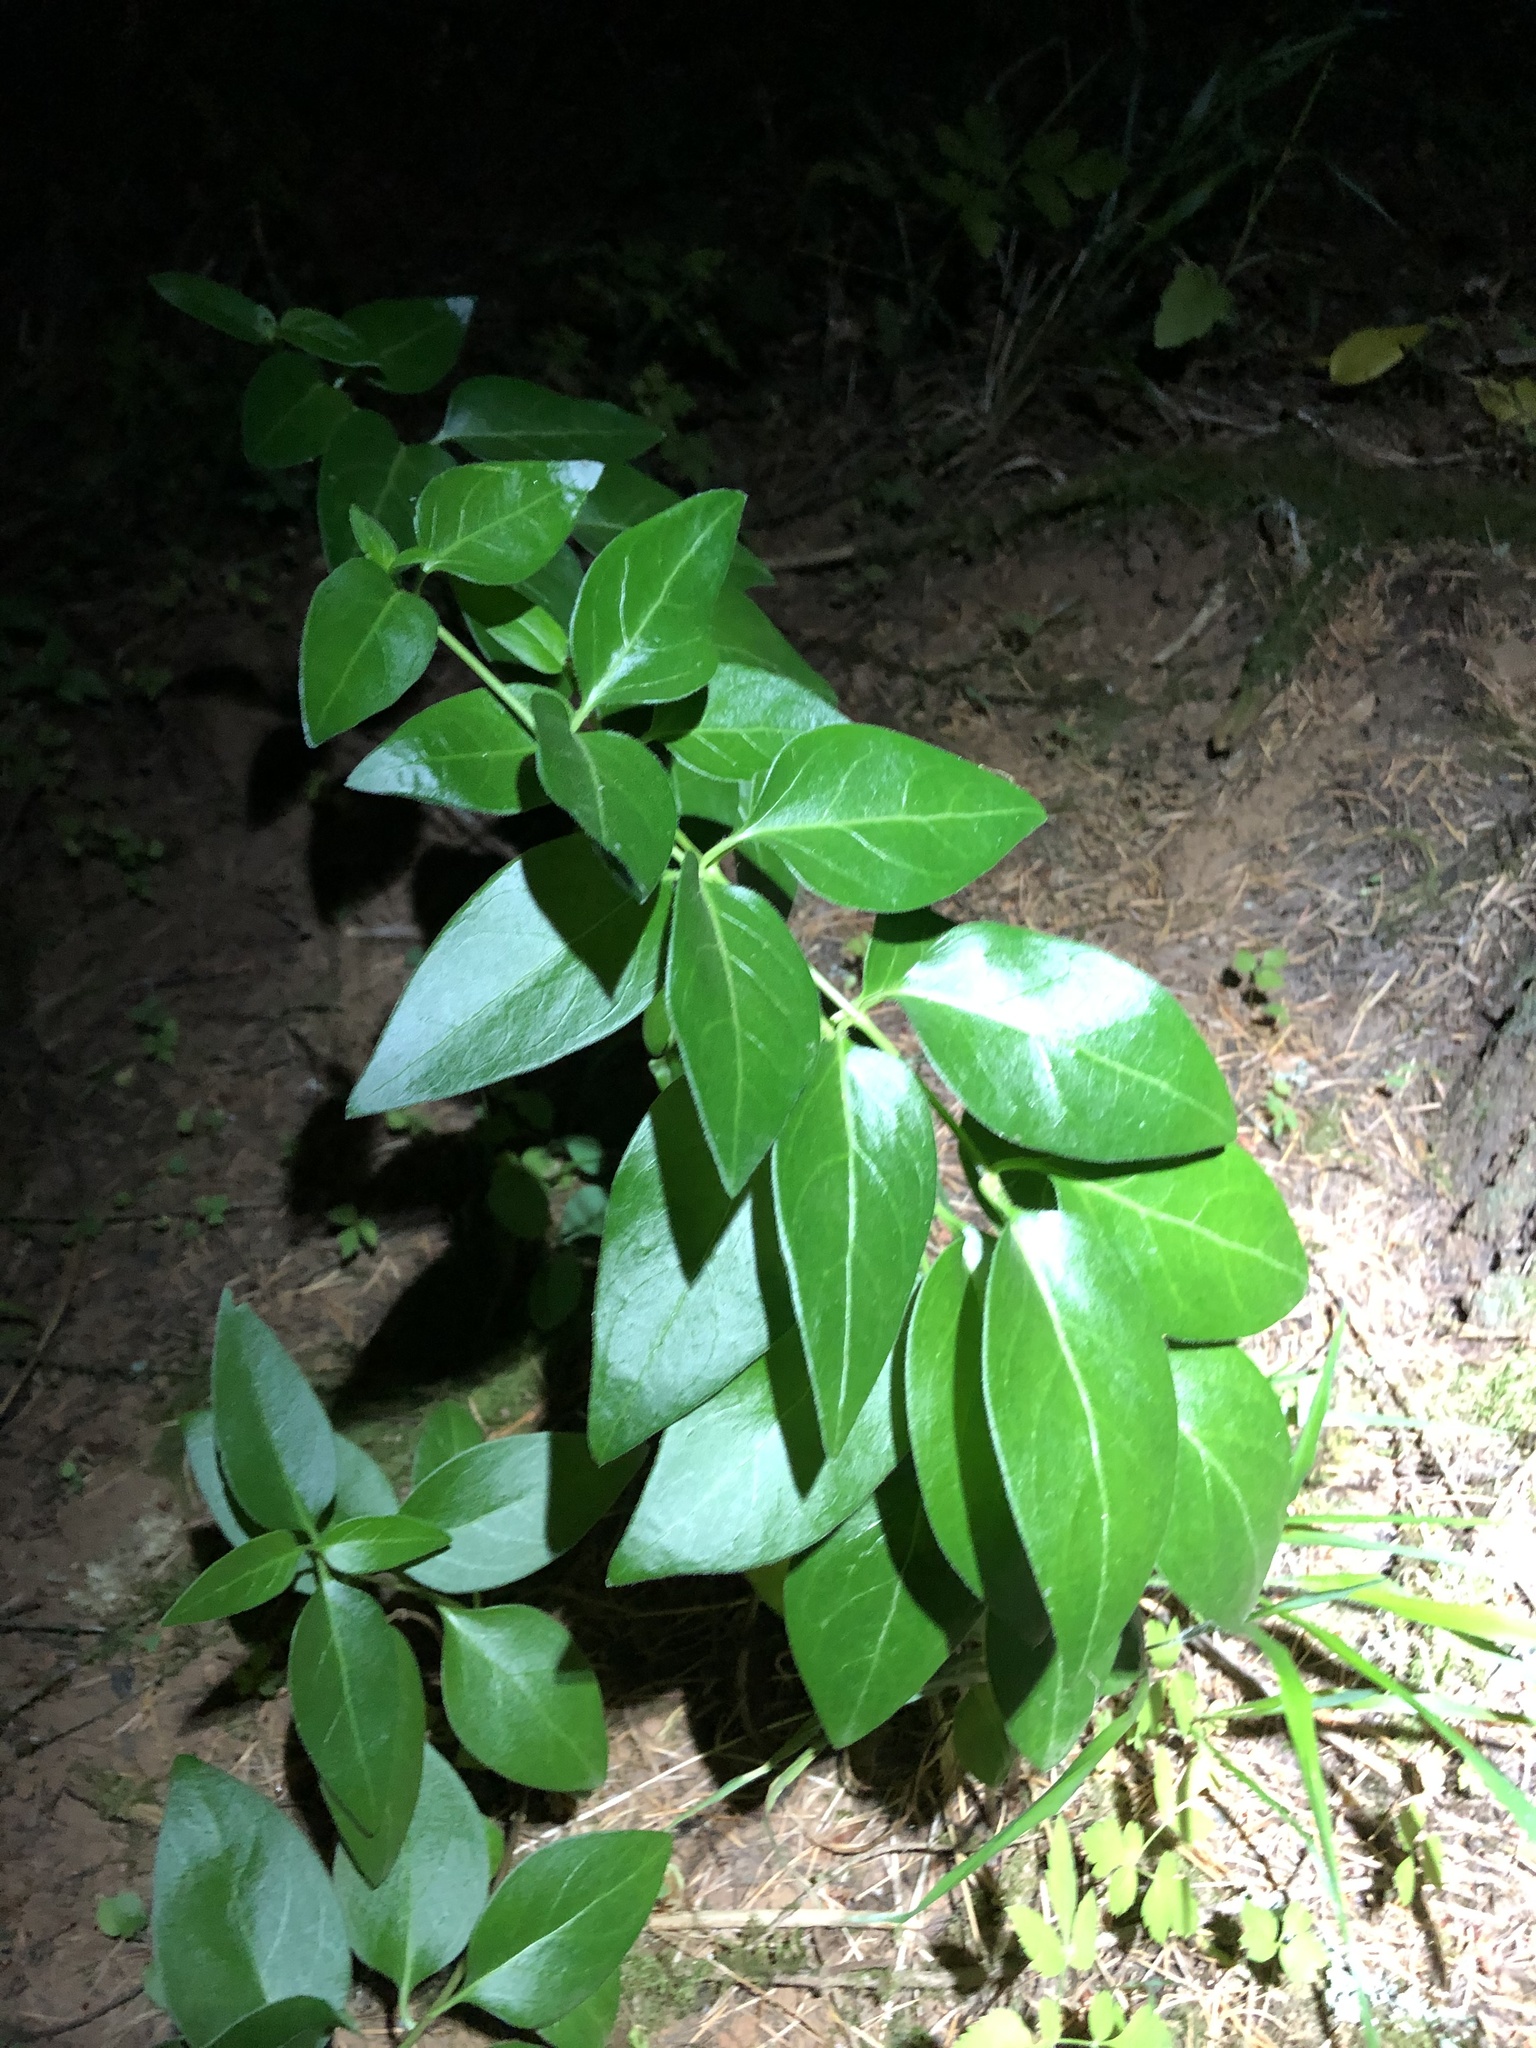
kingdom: Plantae
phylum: Tracheophyta
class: Magnoliopsida
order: Gentianales
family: Apocynaceae
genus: Vinca
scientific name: Vinca major
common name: Greater periwinkle
